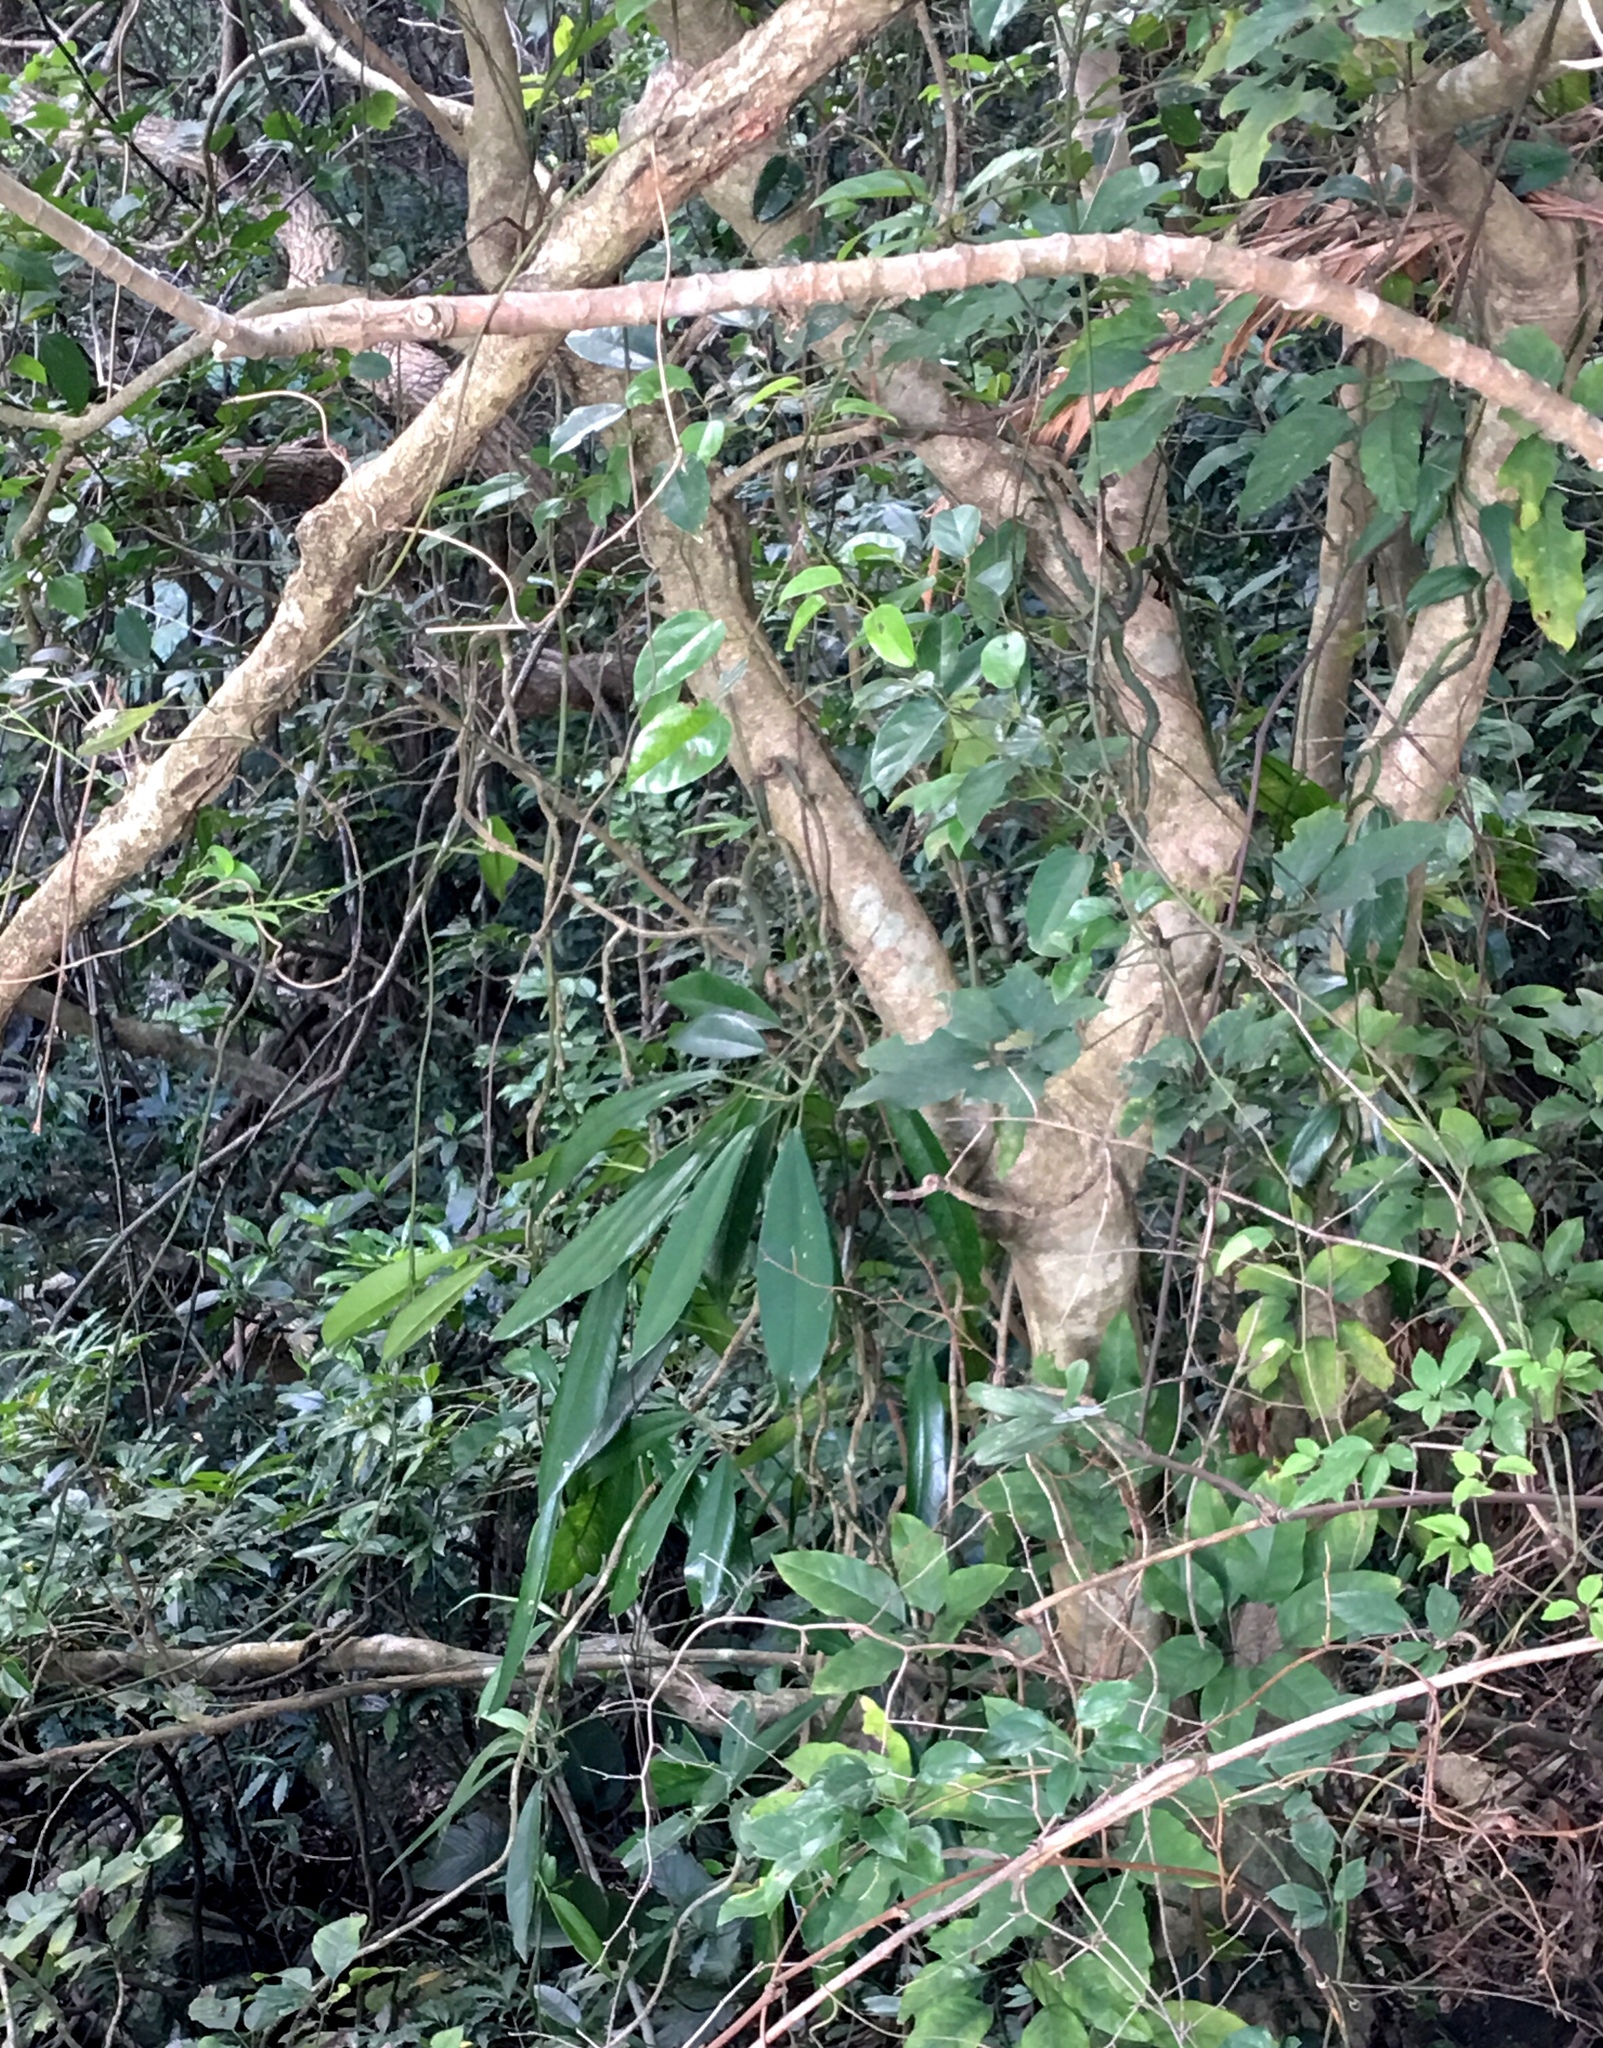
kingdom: Plantae
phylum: Tracheophyta
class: Liliopsida
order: Alismatales
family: Araceae
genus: Rhaphidophora
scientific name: Rhaphidophora hongkongensis
